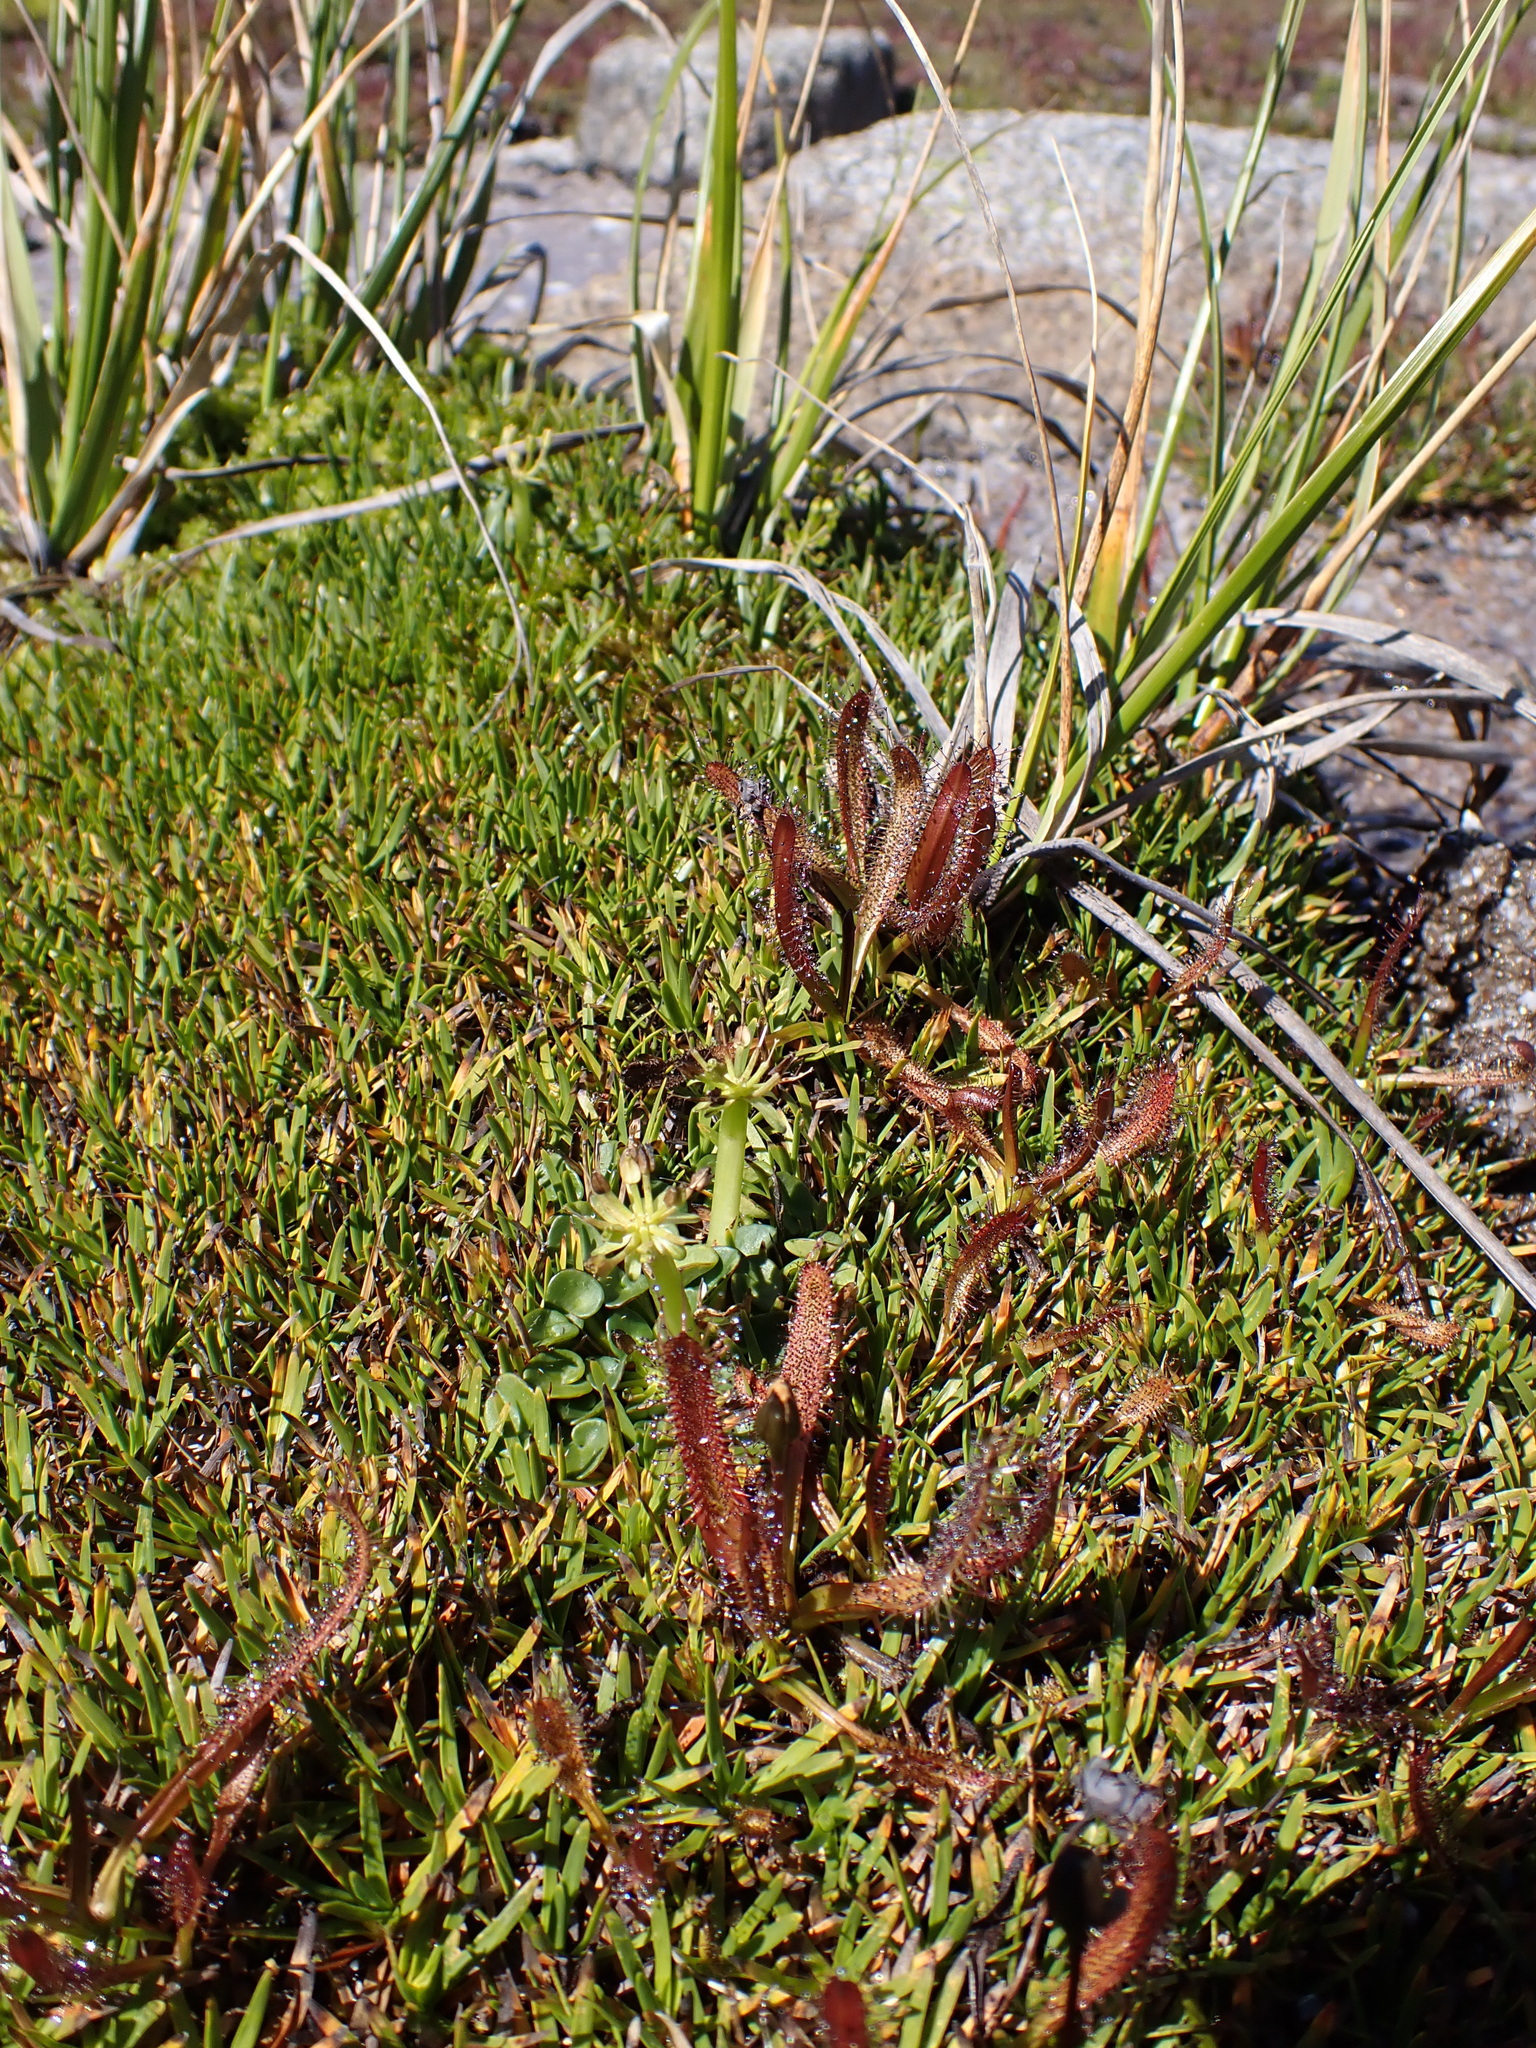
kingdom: Plantae
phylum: Tracheophyta
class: Magnoliopsida
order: Caryophyllales
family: Droseraceae
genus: Drosera
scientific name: Drosera arcturi
